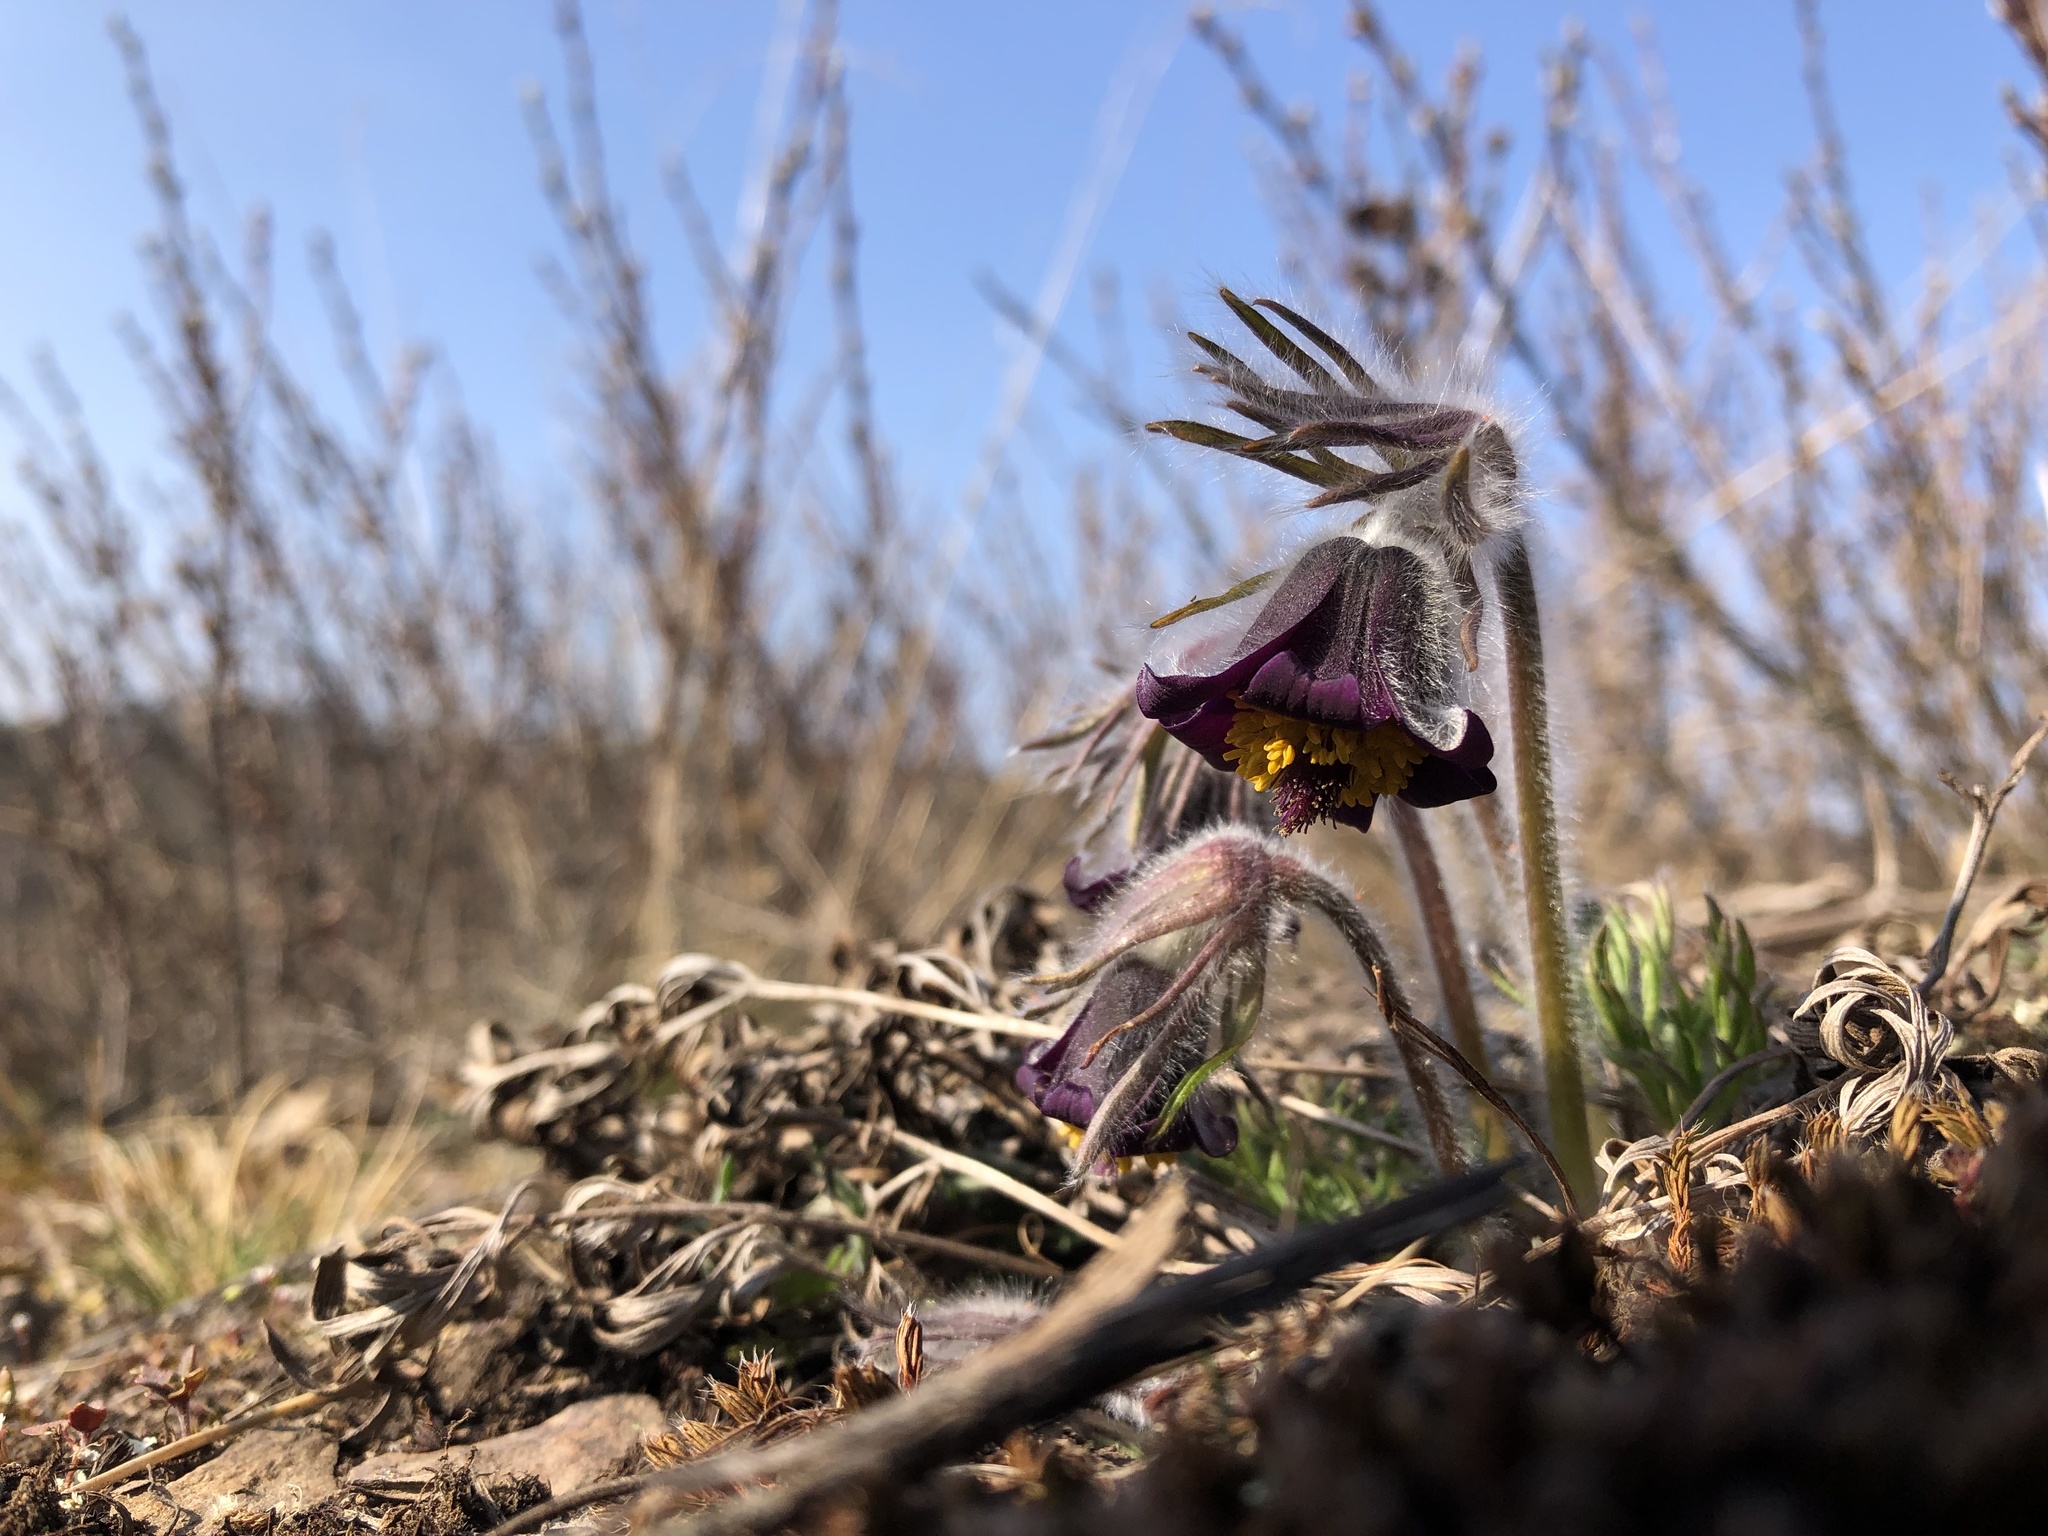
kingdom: Plantae
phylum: Tracheophyta
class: Magnoliopsida
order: Ranunculales
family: Ranunculaceae
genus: Pulsatilla
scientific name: Pulsatilla pratensis
